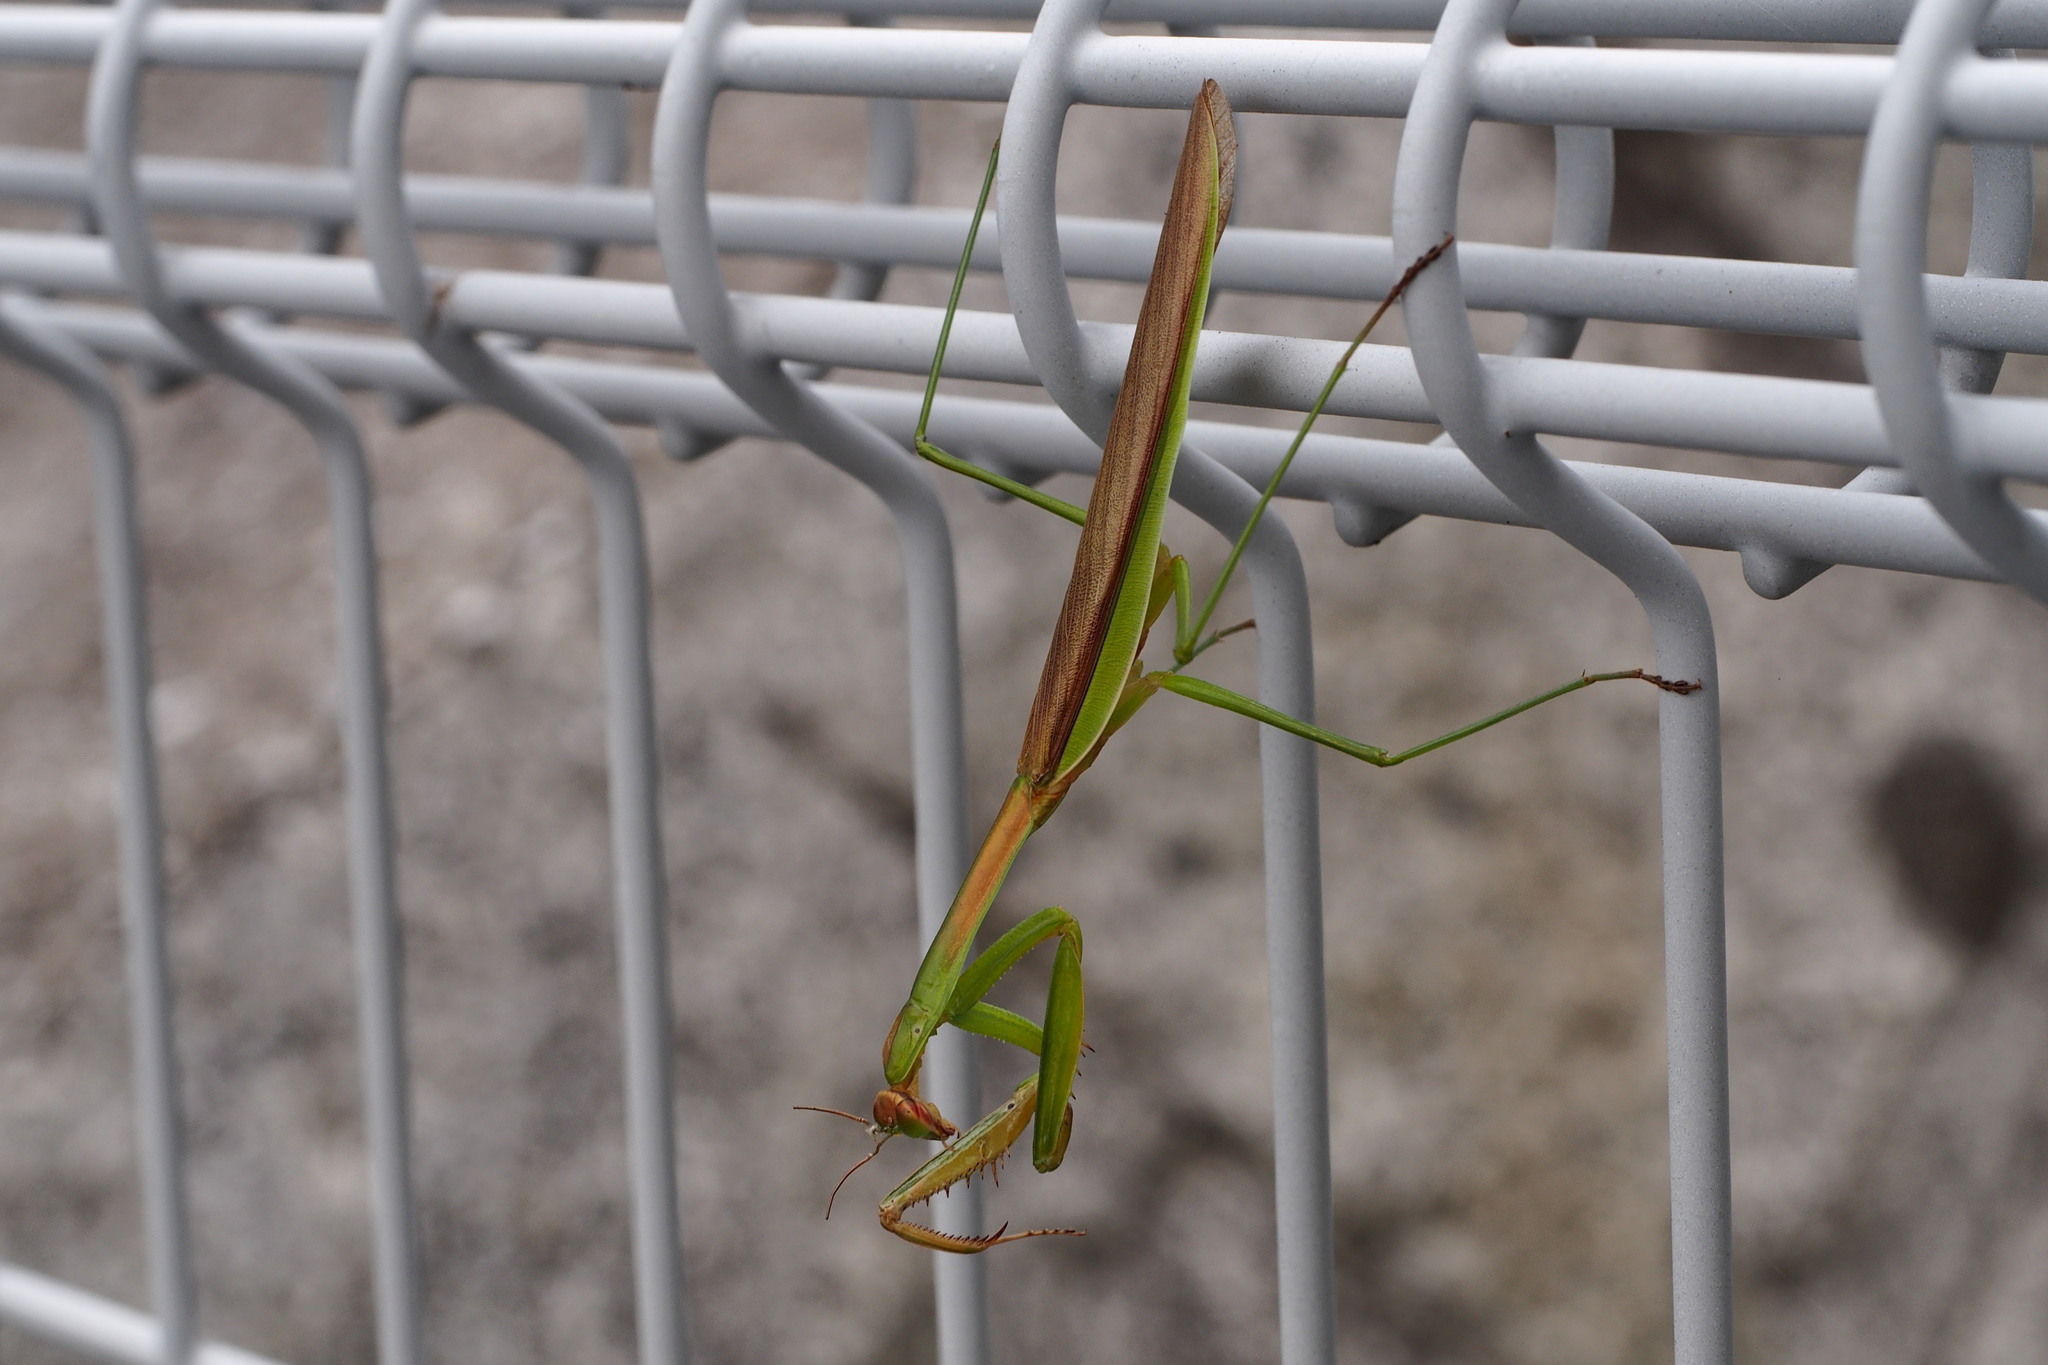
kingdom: Animalia
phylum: Arthropoda
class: Insecta
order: Mantodea
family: Mantidae
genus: Tenodera
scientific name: Tenodera sinensis
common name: Chinese mantis
